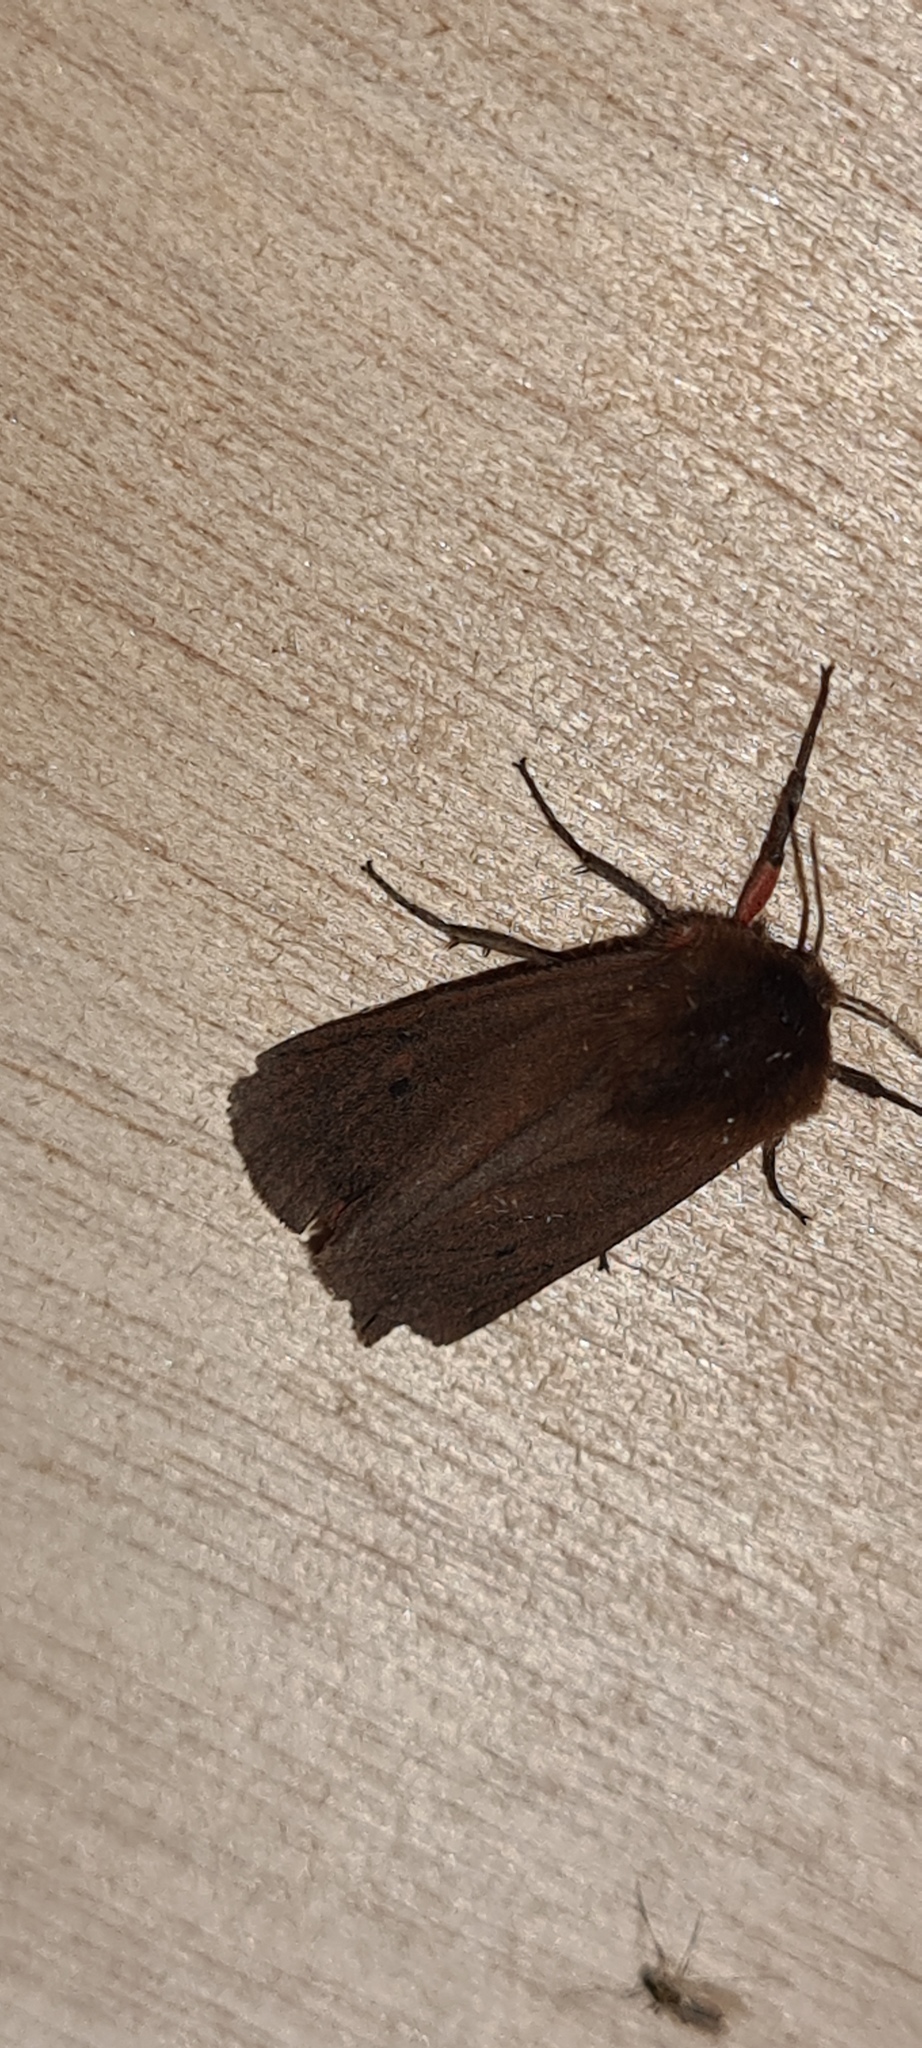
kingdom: Animalia
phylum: Arthropoda
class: Insecta
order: Lepidoptera
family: Erebidae
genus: Phragmatobia
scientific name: Phragmatobia fuliginosa
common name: Ruby tiger
